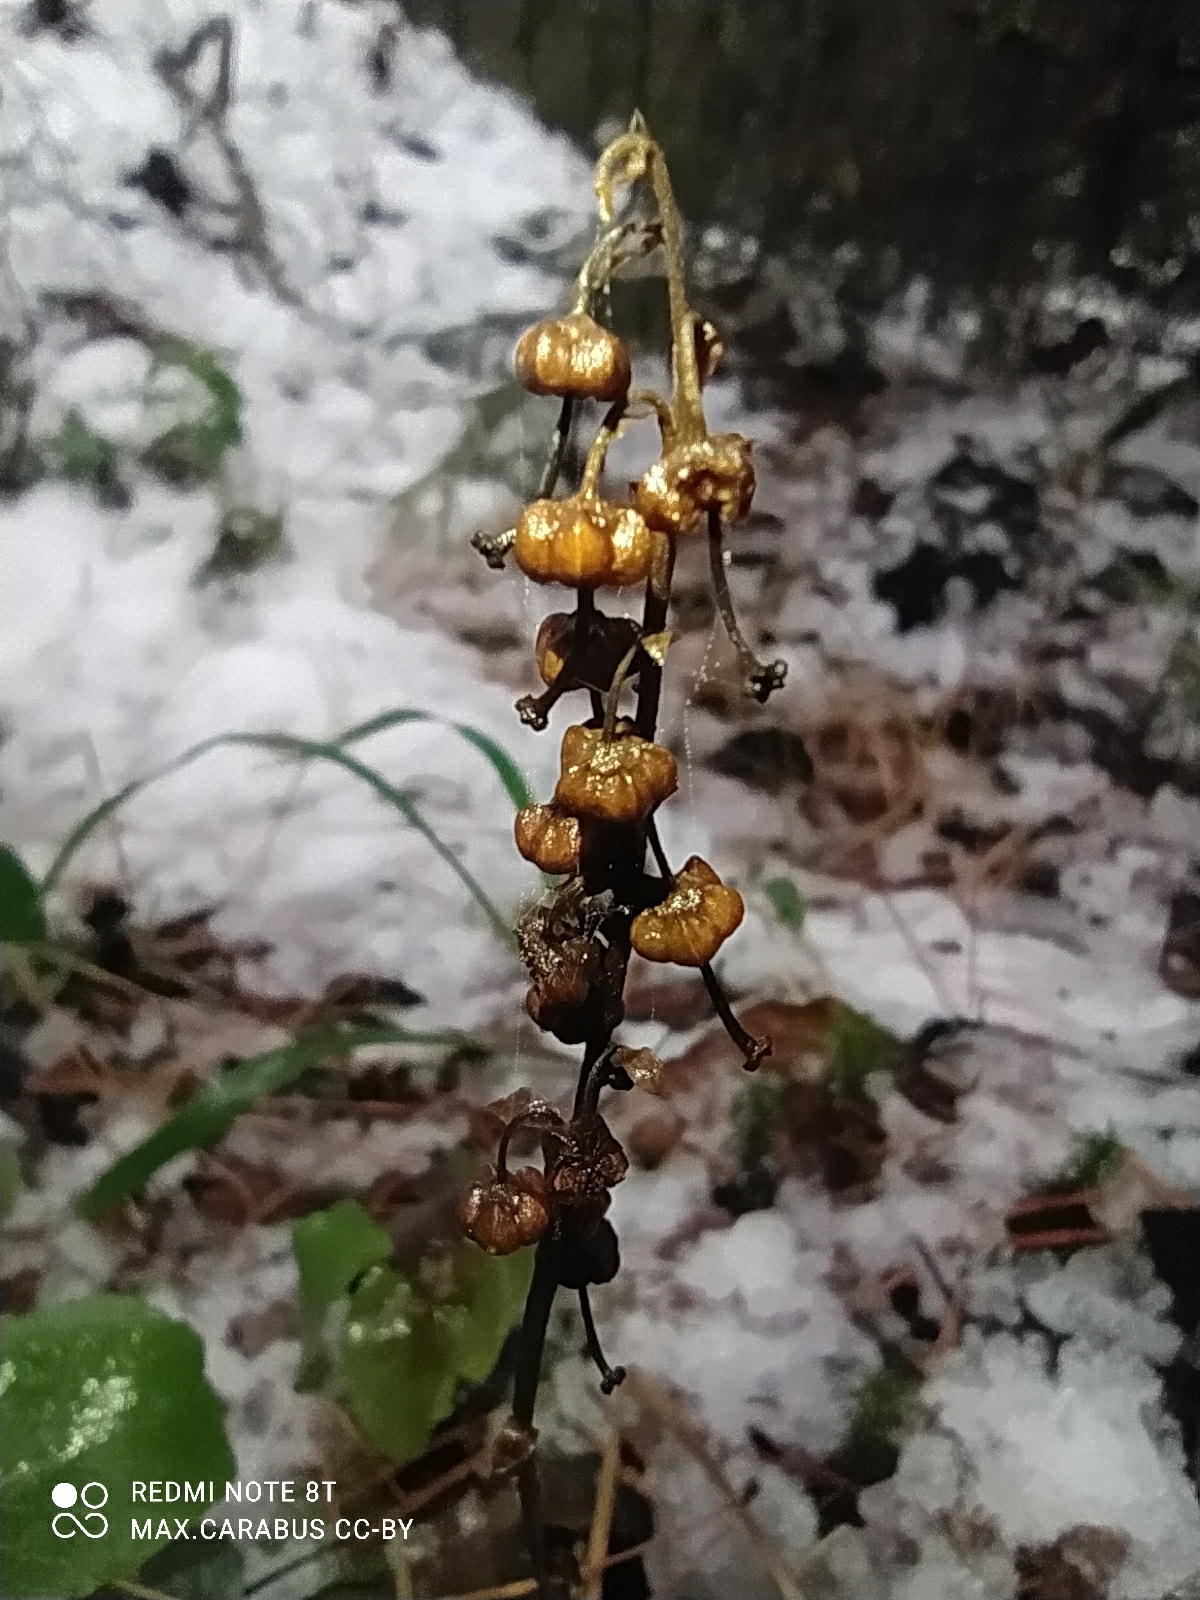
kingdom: Plantae
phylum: Tracheophyta
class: Magnoliopsida
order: Ericales
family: Ericaceae
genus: Orthilia
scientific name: Orthilia secunda
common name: One-sided orthilia
